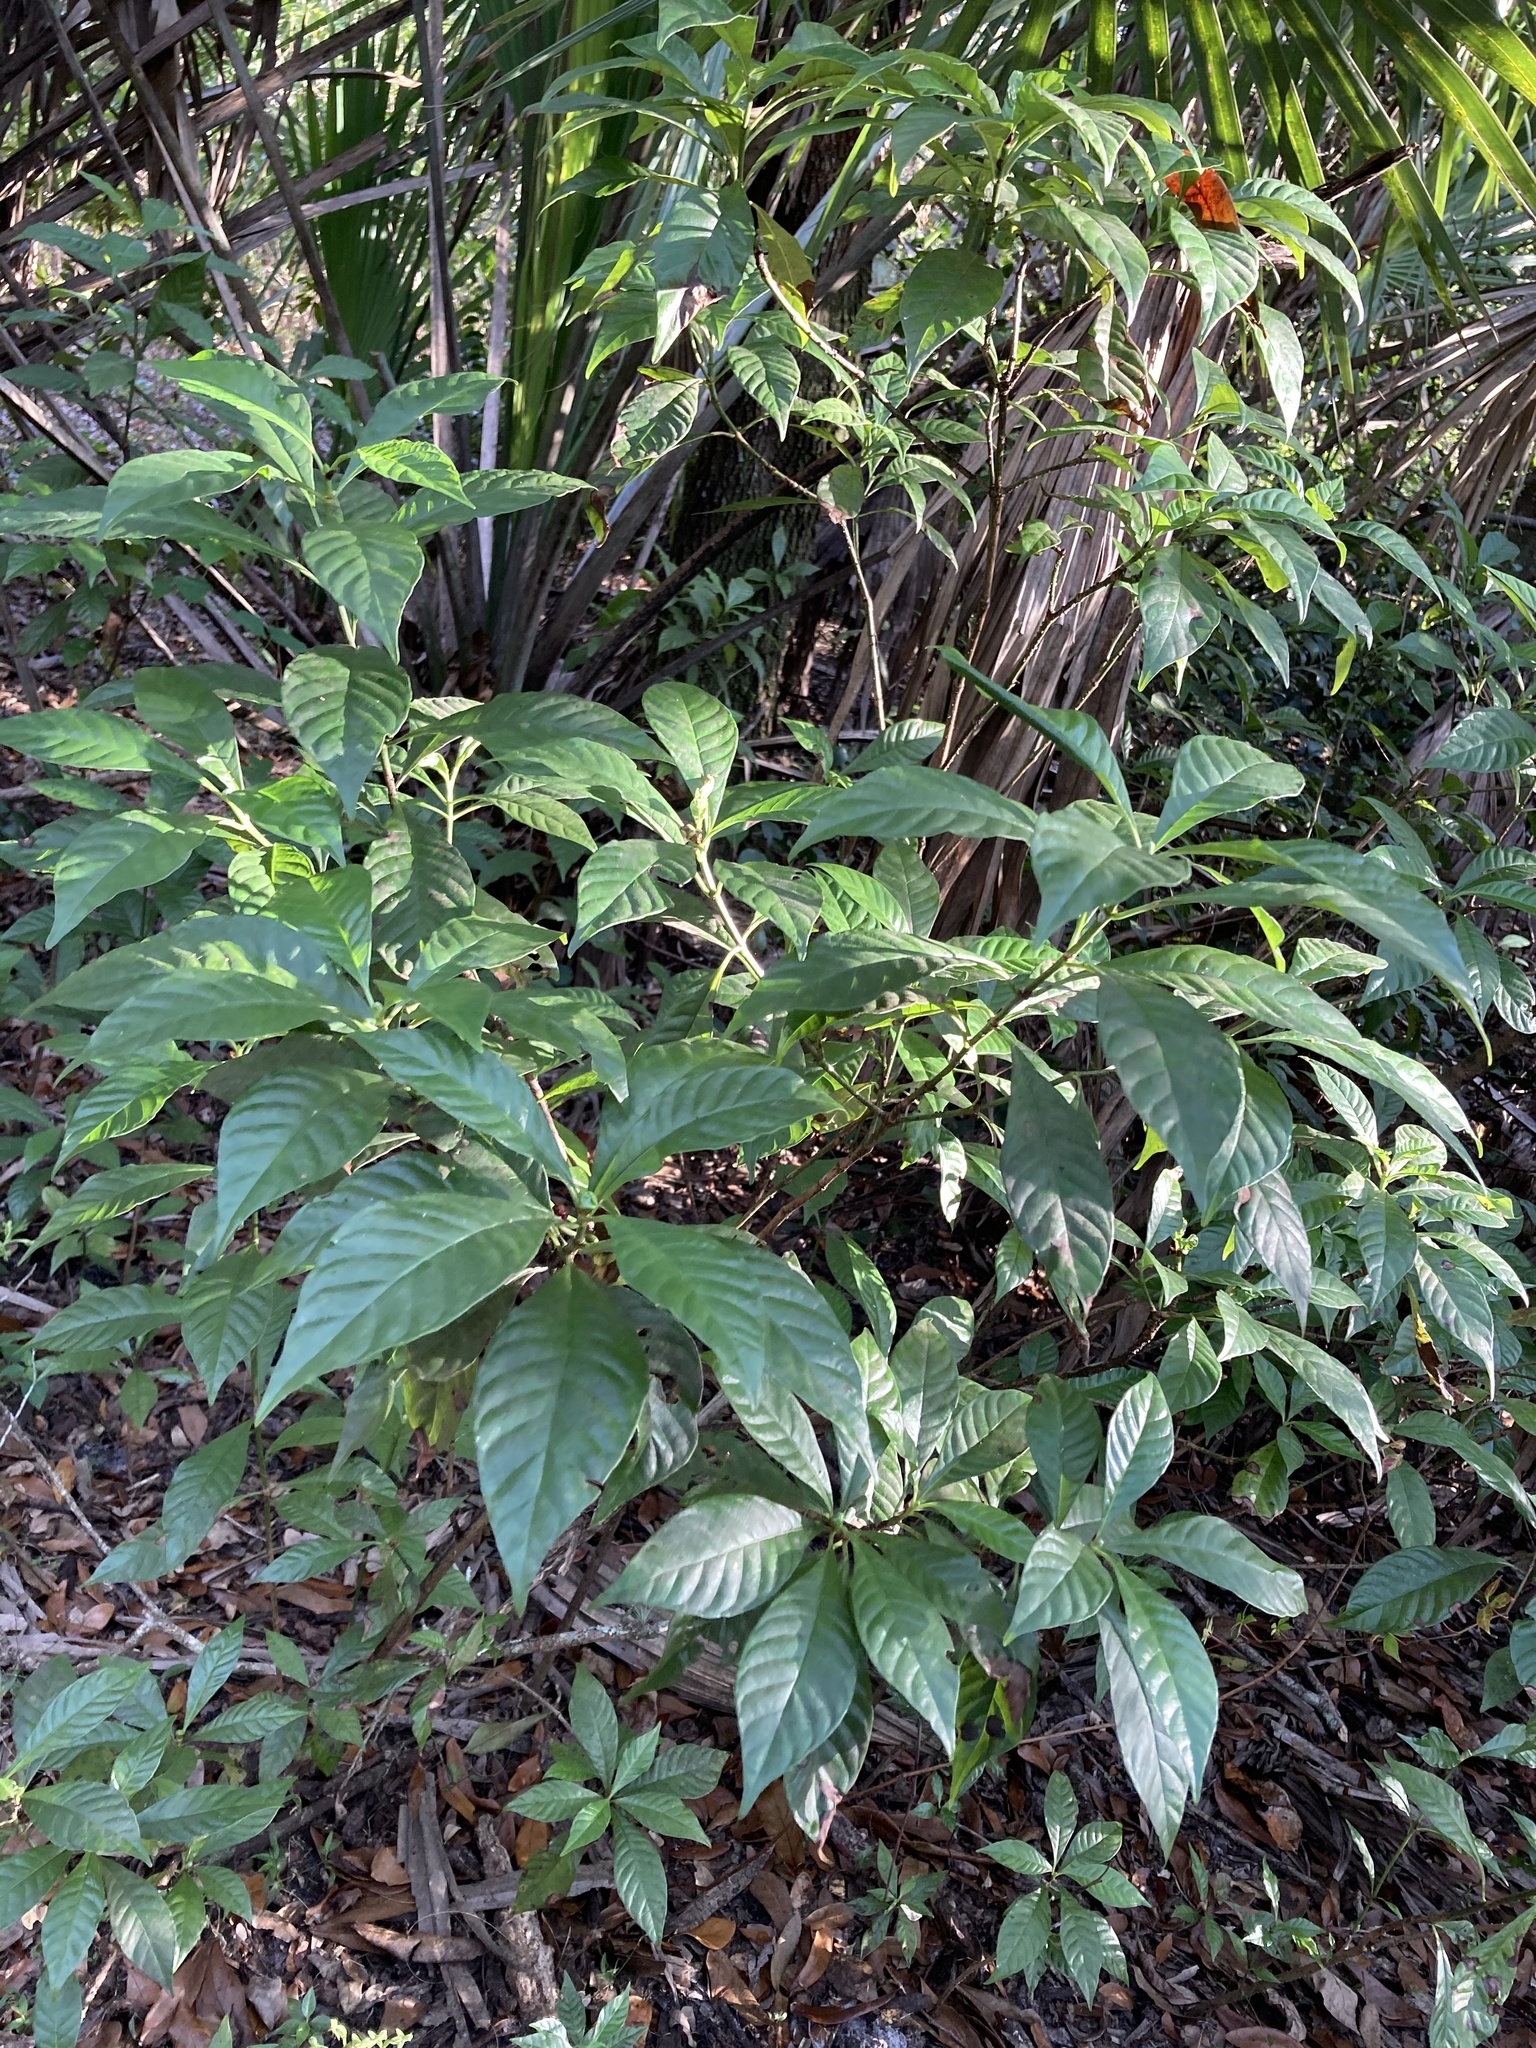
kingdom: Plantae
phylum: Tracheophyta
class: Magnoliopsida
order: Gentianales
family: Rubiaceae
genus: Psychotria
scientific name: Psychotria nervosa
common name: Bastard cankerberry
